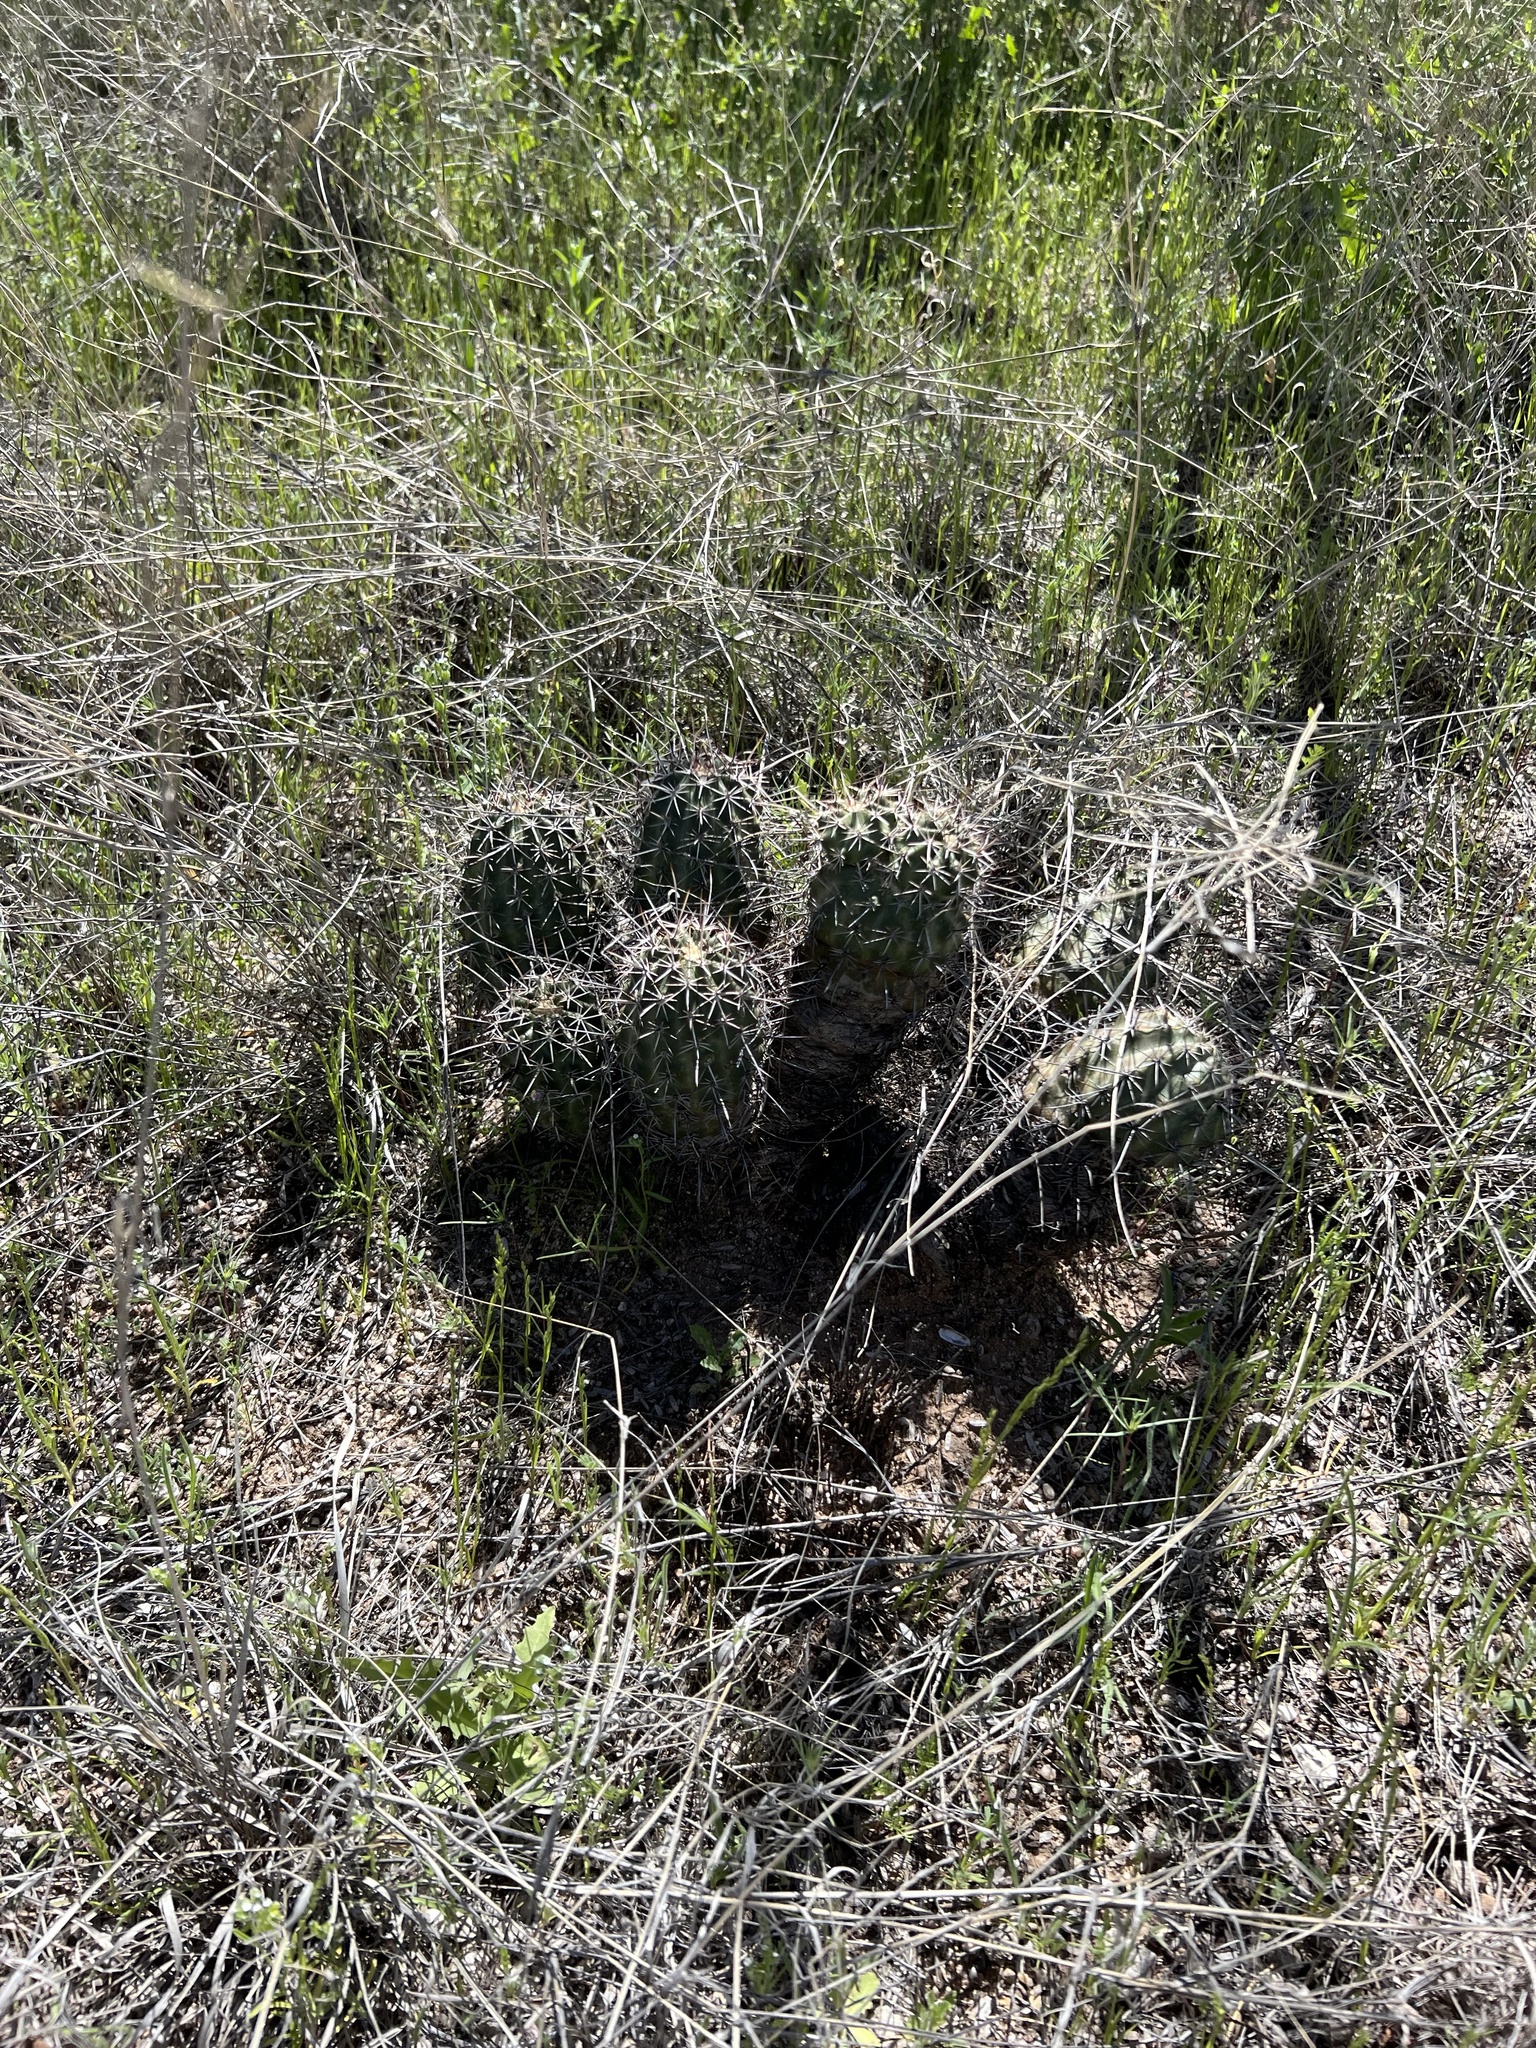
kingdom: Plantae
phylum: Tracheophyta
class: Magnoliopsida
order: Caryophyllales
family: Cactaceae
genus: Echinocereus
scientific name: Echinocereus fasciculatus
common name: Bundle hedgehog
